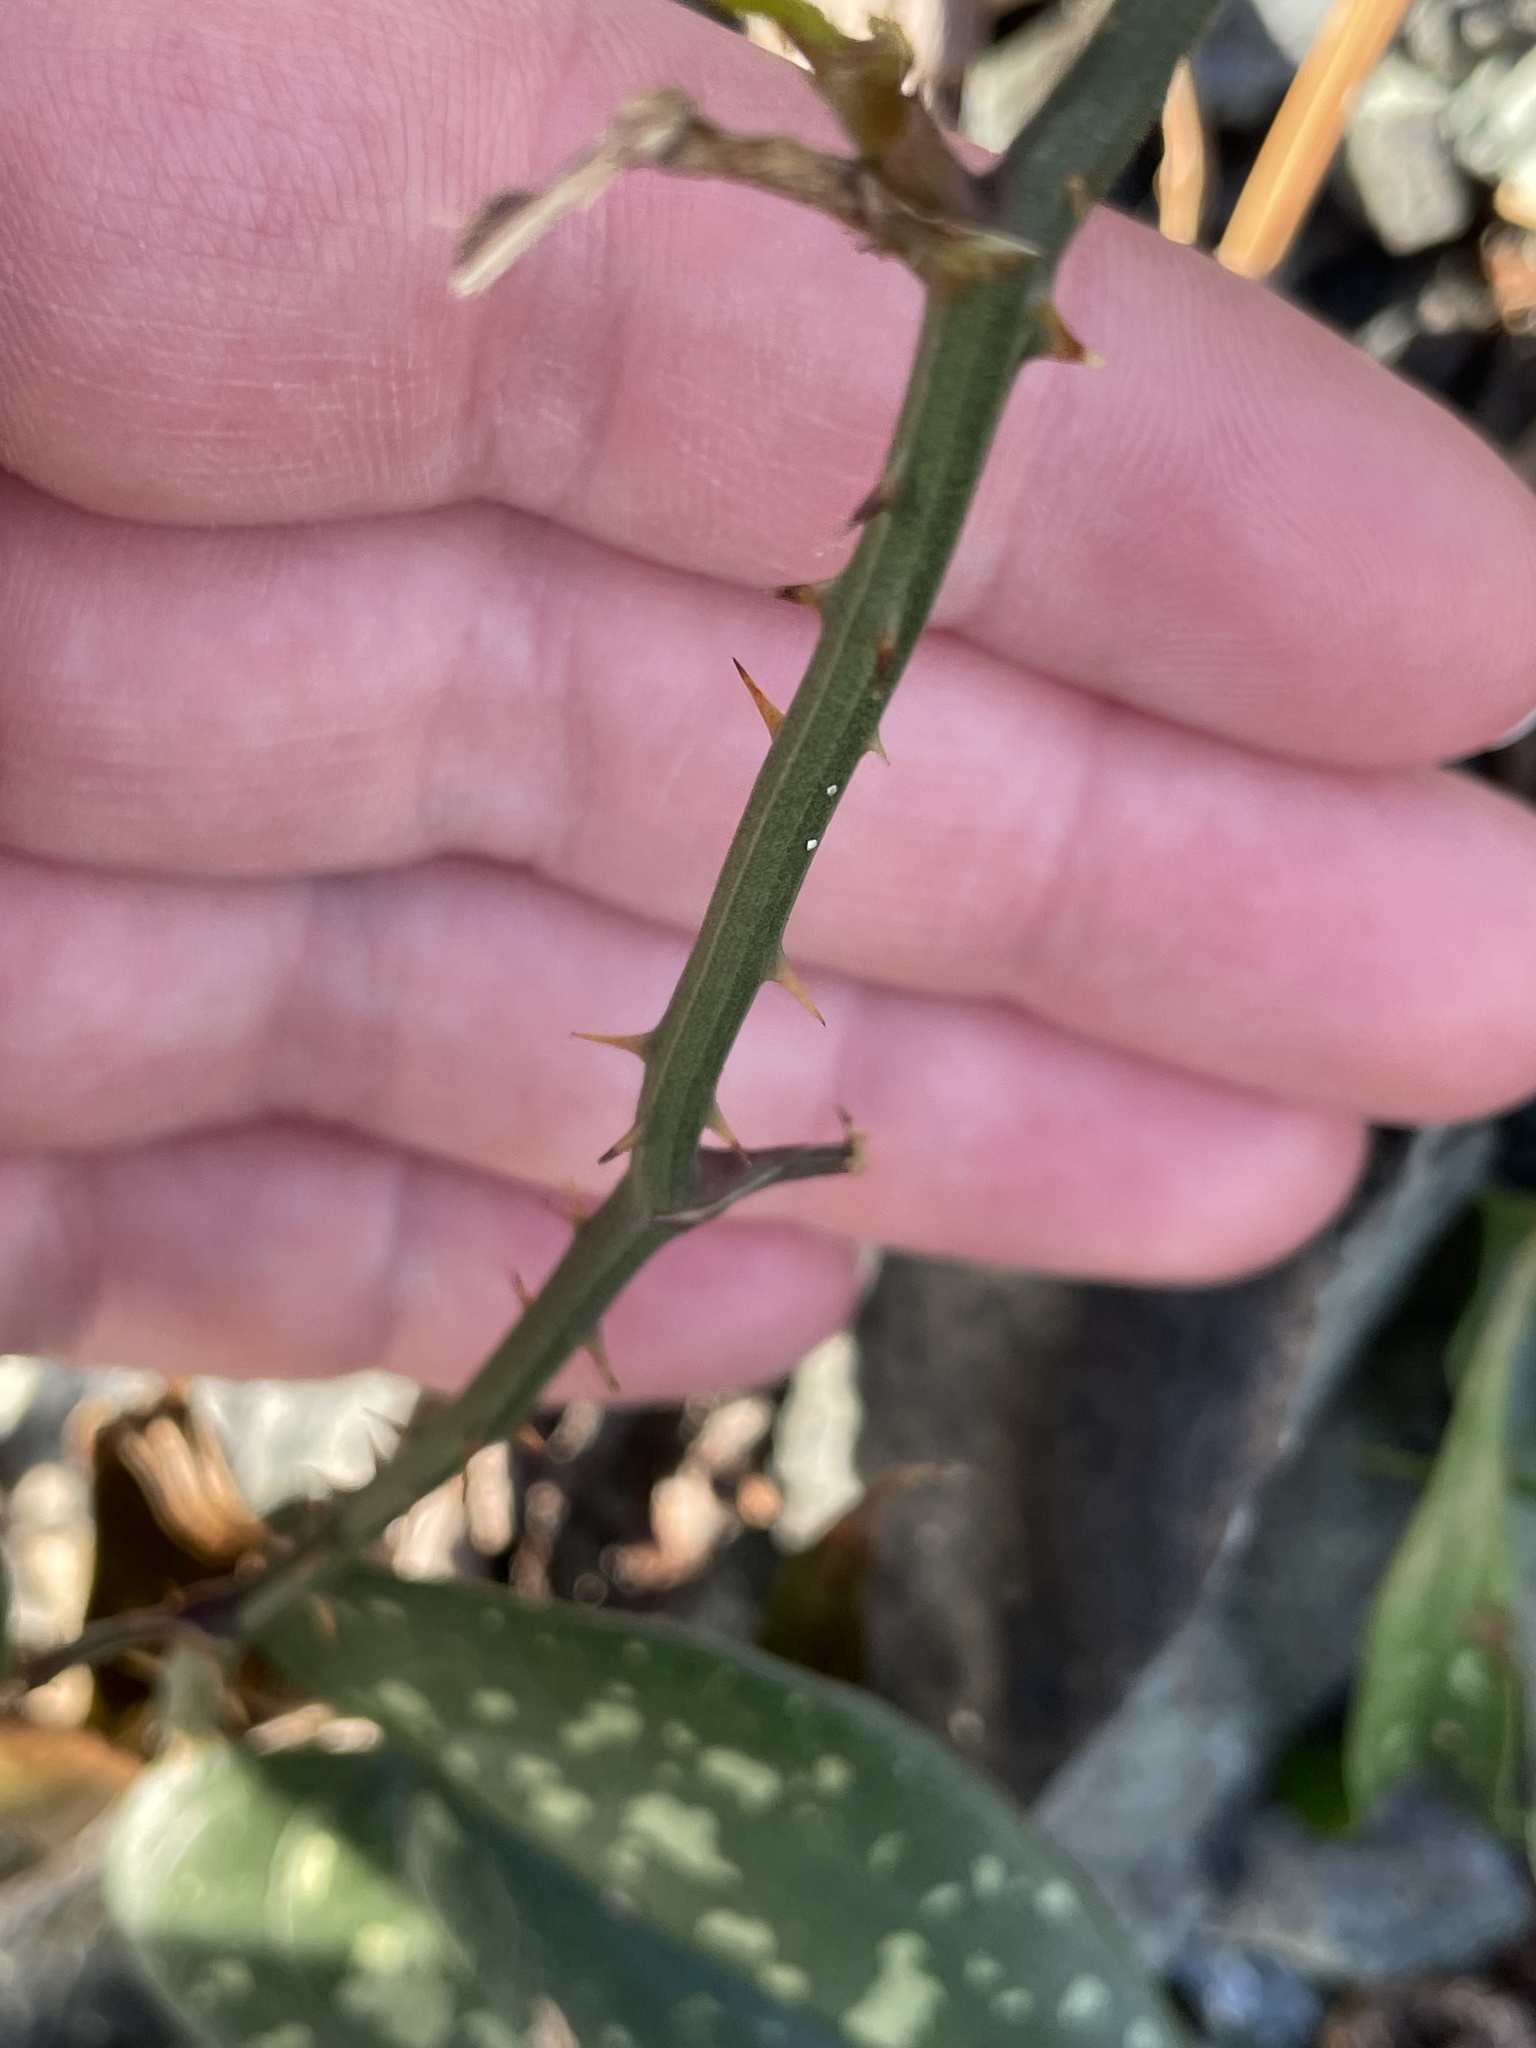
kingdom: Plantae
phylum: Tracheophyta
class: Liliopsida
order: Liliales
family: Smilacaceae
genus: Smilax
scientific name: Smilax aspera
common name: Common smilax
